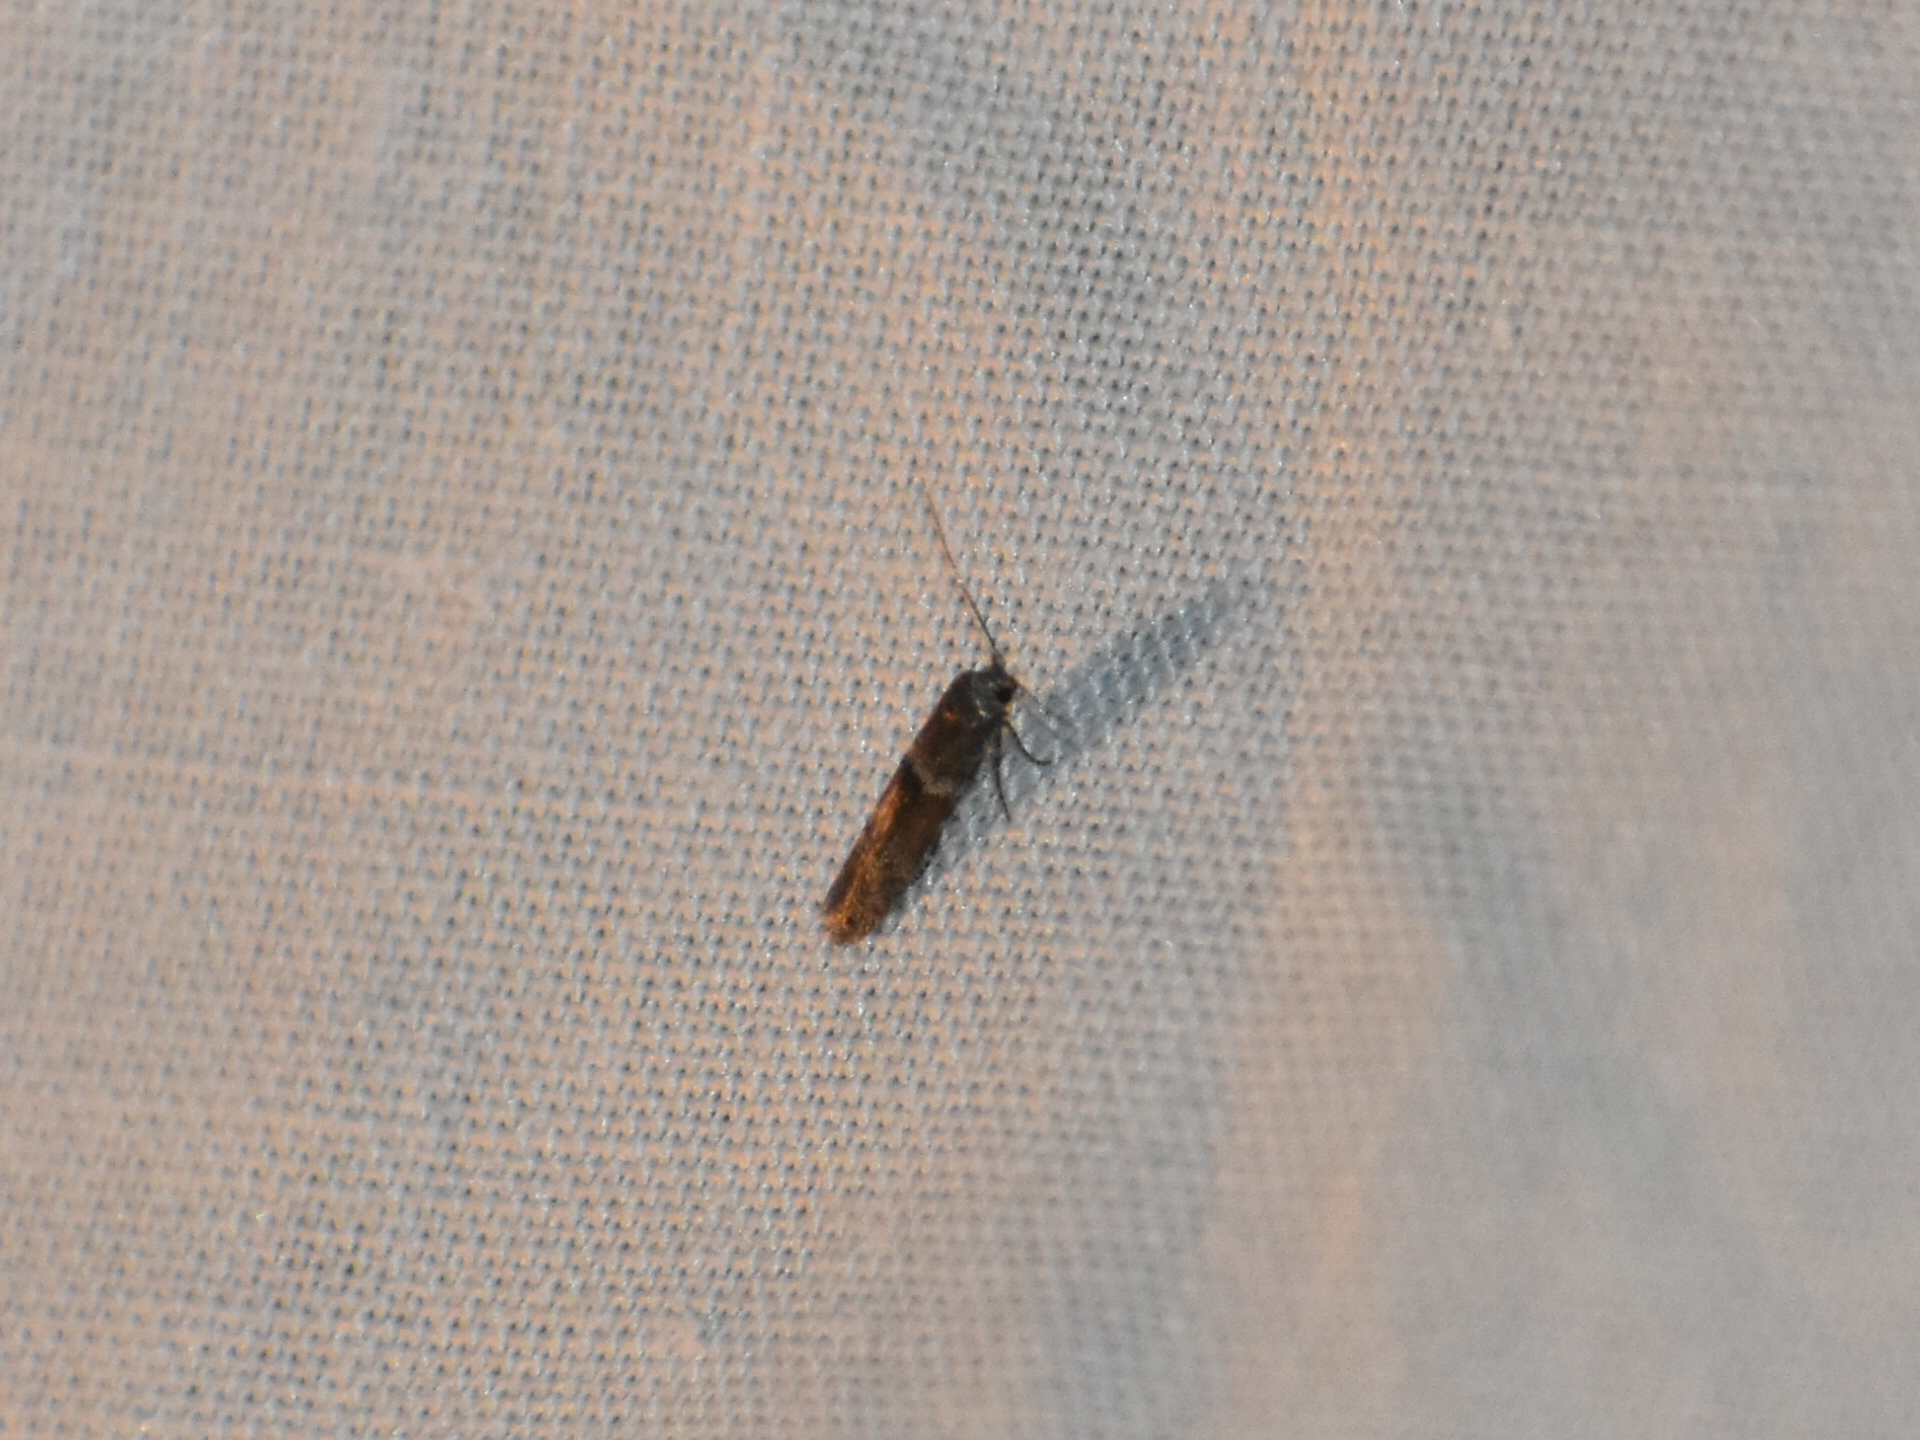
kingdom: Animalia
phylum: Arthropoda
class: Insecta
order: Lepidoptera
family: Blastobasidae
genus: Pigritia
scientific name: Pigritia
